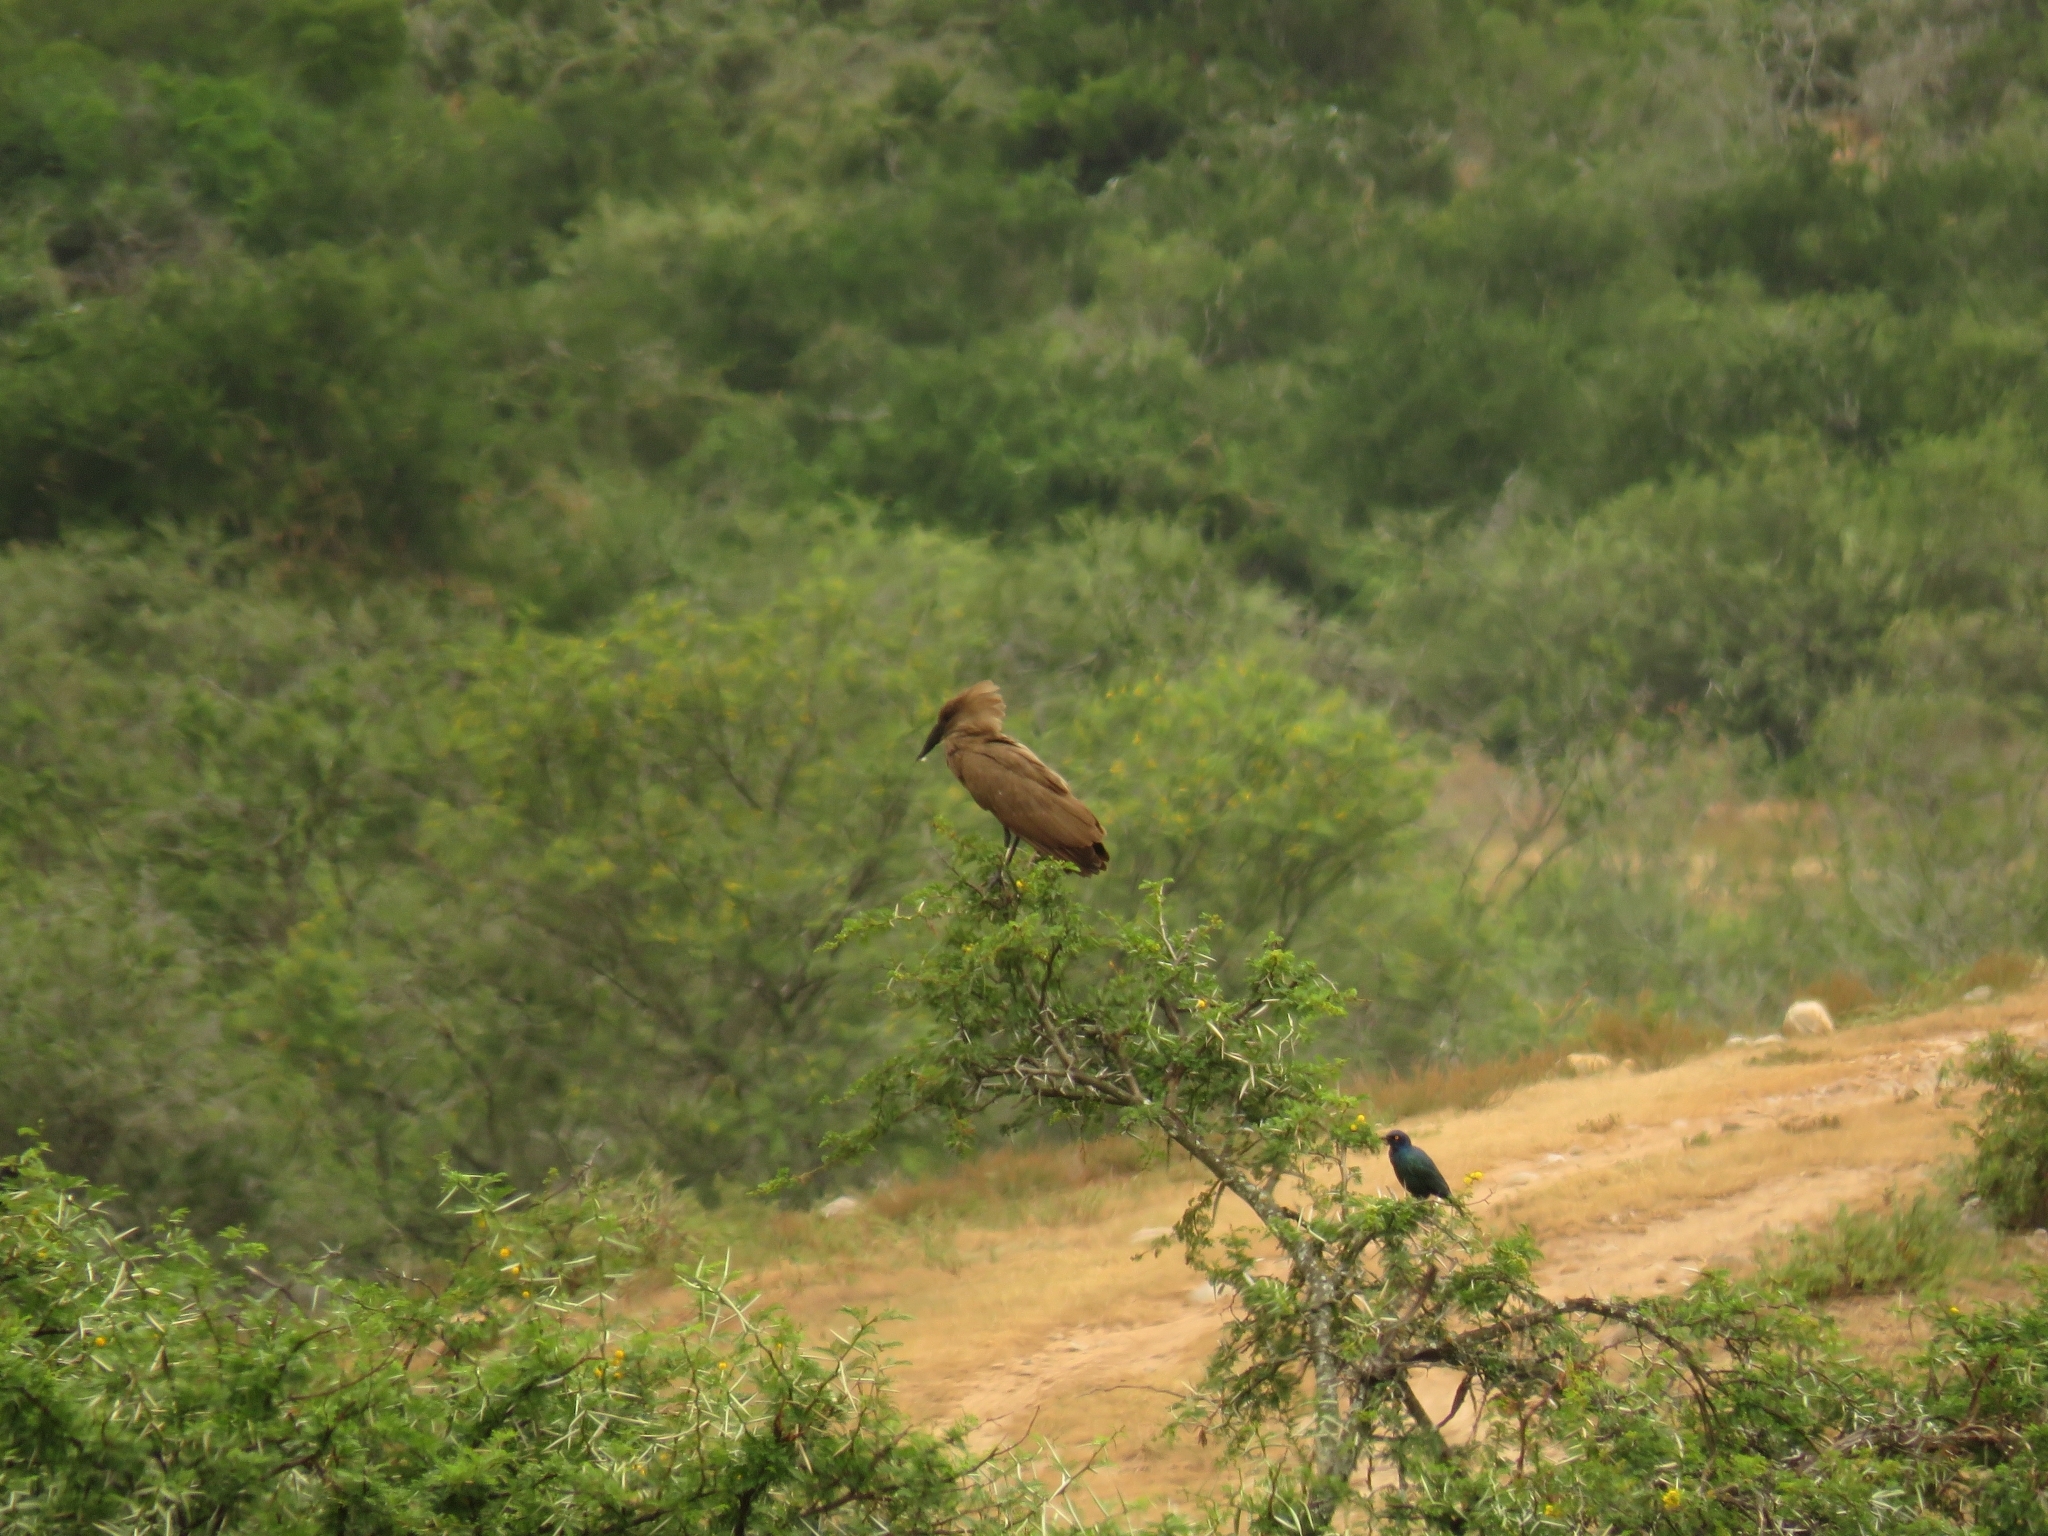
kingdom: Animalia
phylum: Chordata
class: Aves
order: Pelecaniformes
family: Scopidae
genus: Scopus
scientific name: Scopus umbretta
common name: Hamerkop
